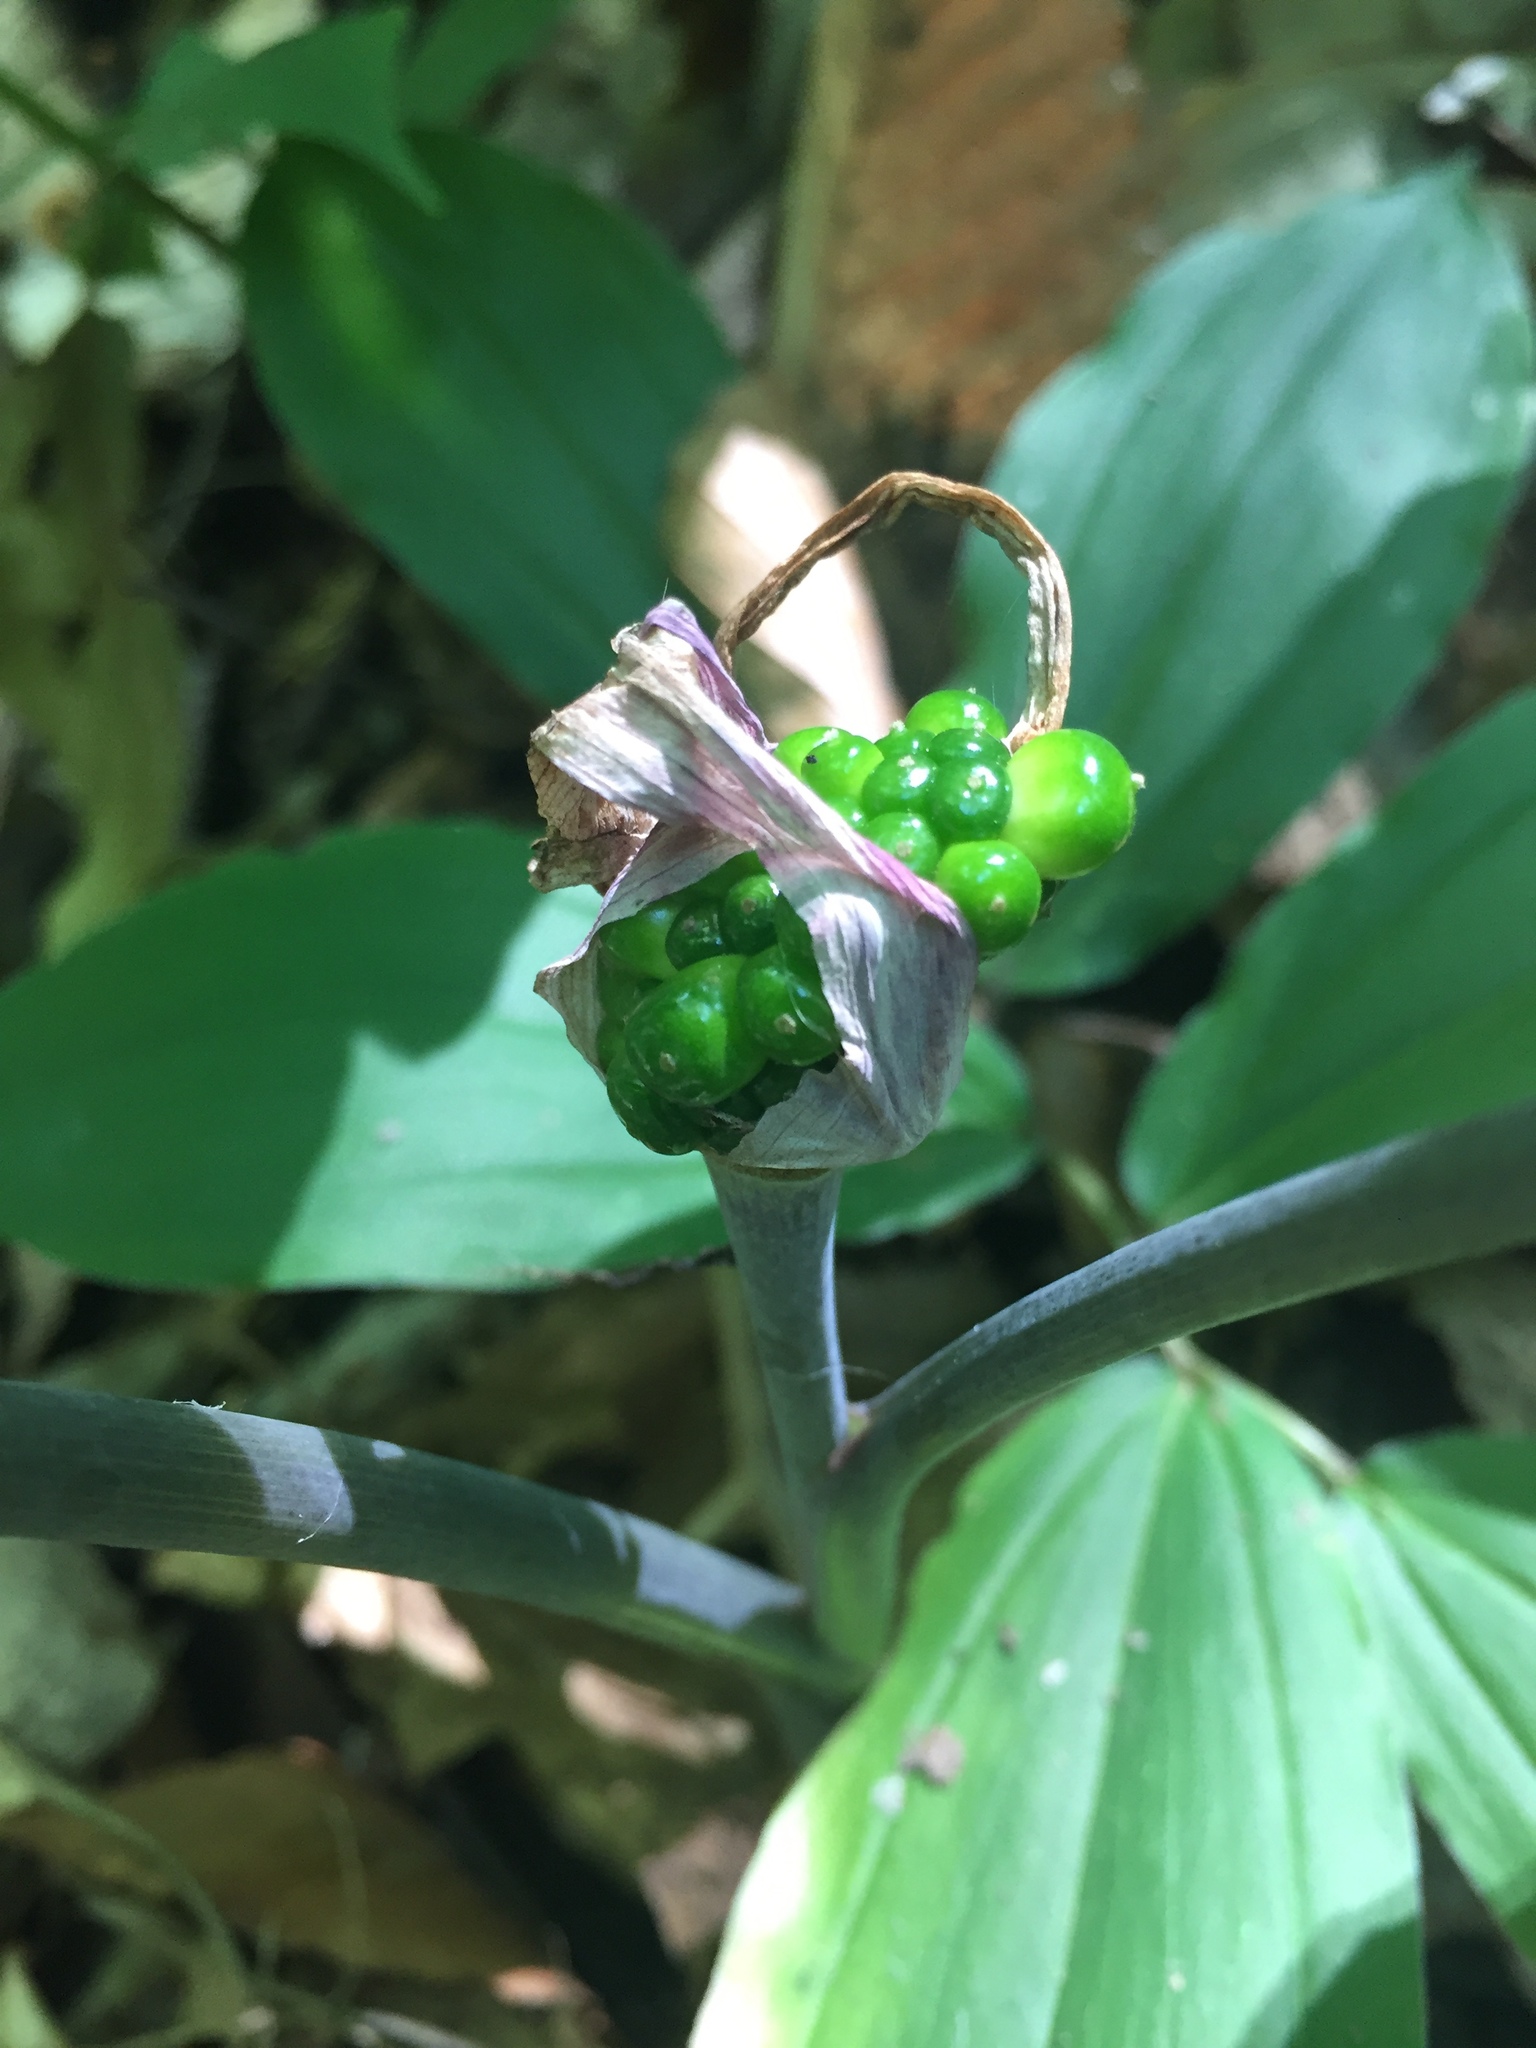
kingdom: Plantae
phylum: Tracheophyta
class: Liliopsida
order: Alismatales
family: Araceae
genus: Arisaema
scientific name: Arisaema triphyllum
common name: Jack-in-the-pulpit
